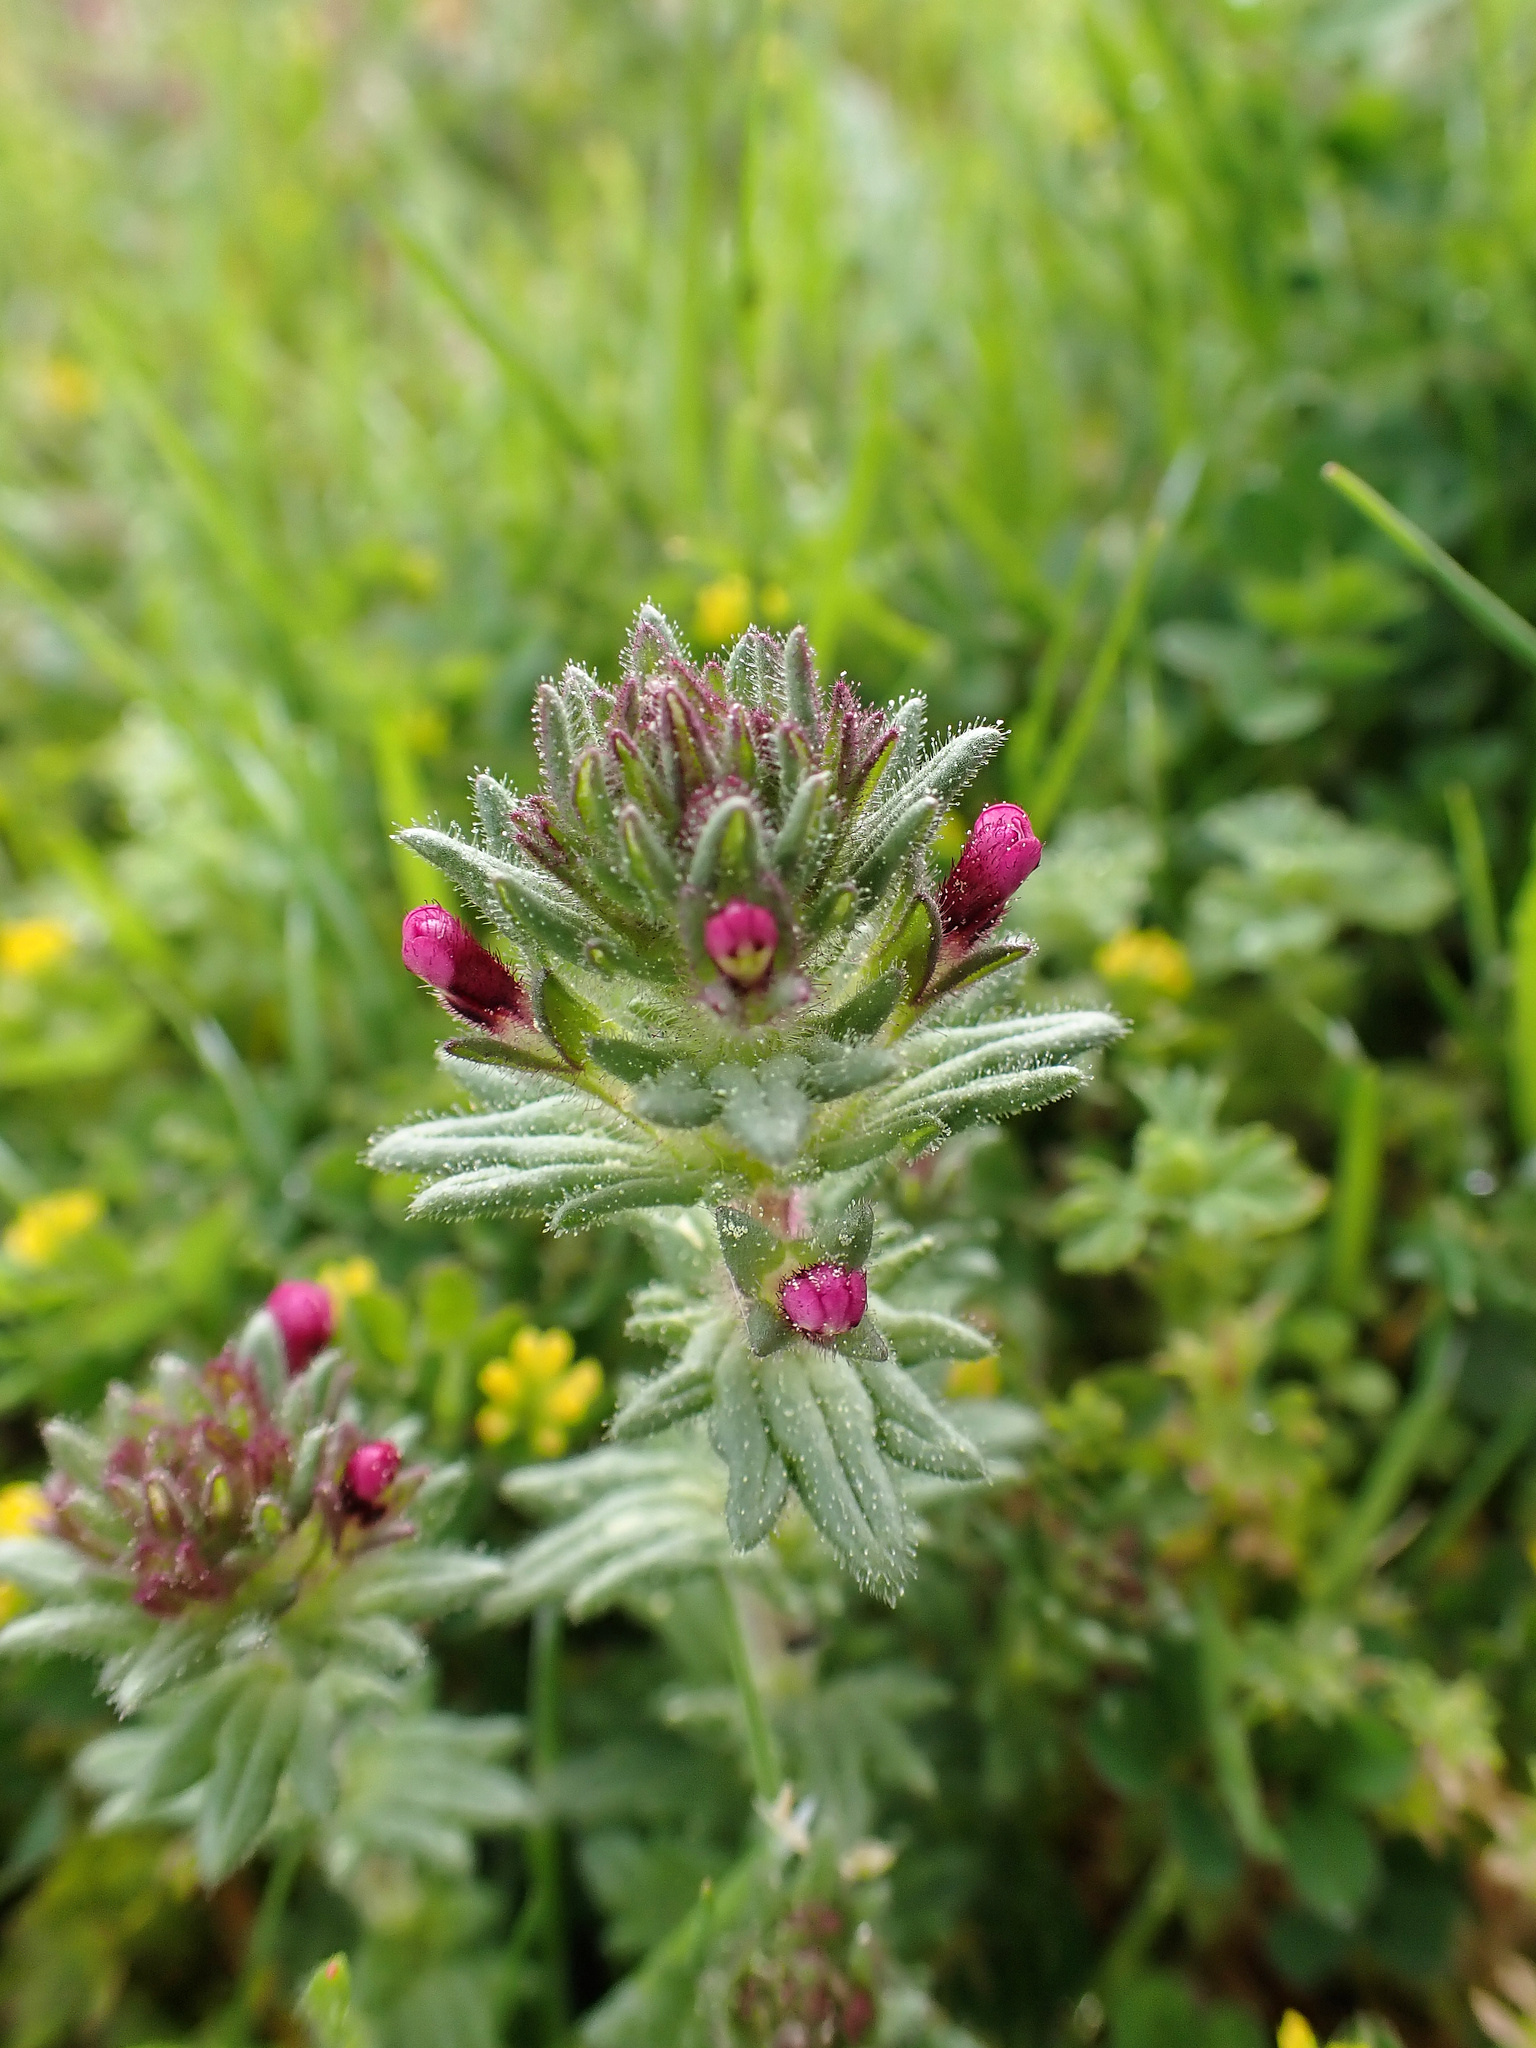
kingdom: Plantae
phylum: Tracheophyta
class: Magnoliopsida
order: Lamiales
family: Orobanchaceae
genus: Parentucellia
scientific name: Parentucellia latifolia
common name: Broadleaf glandweed
